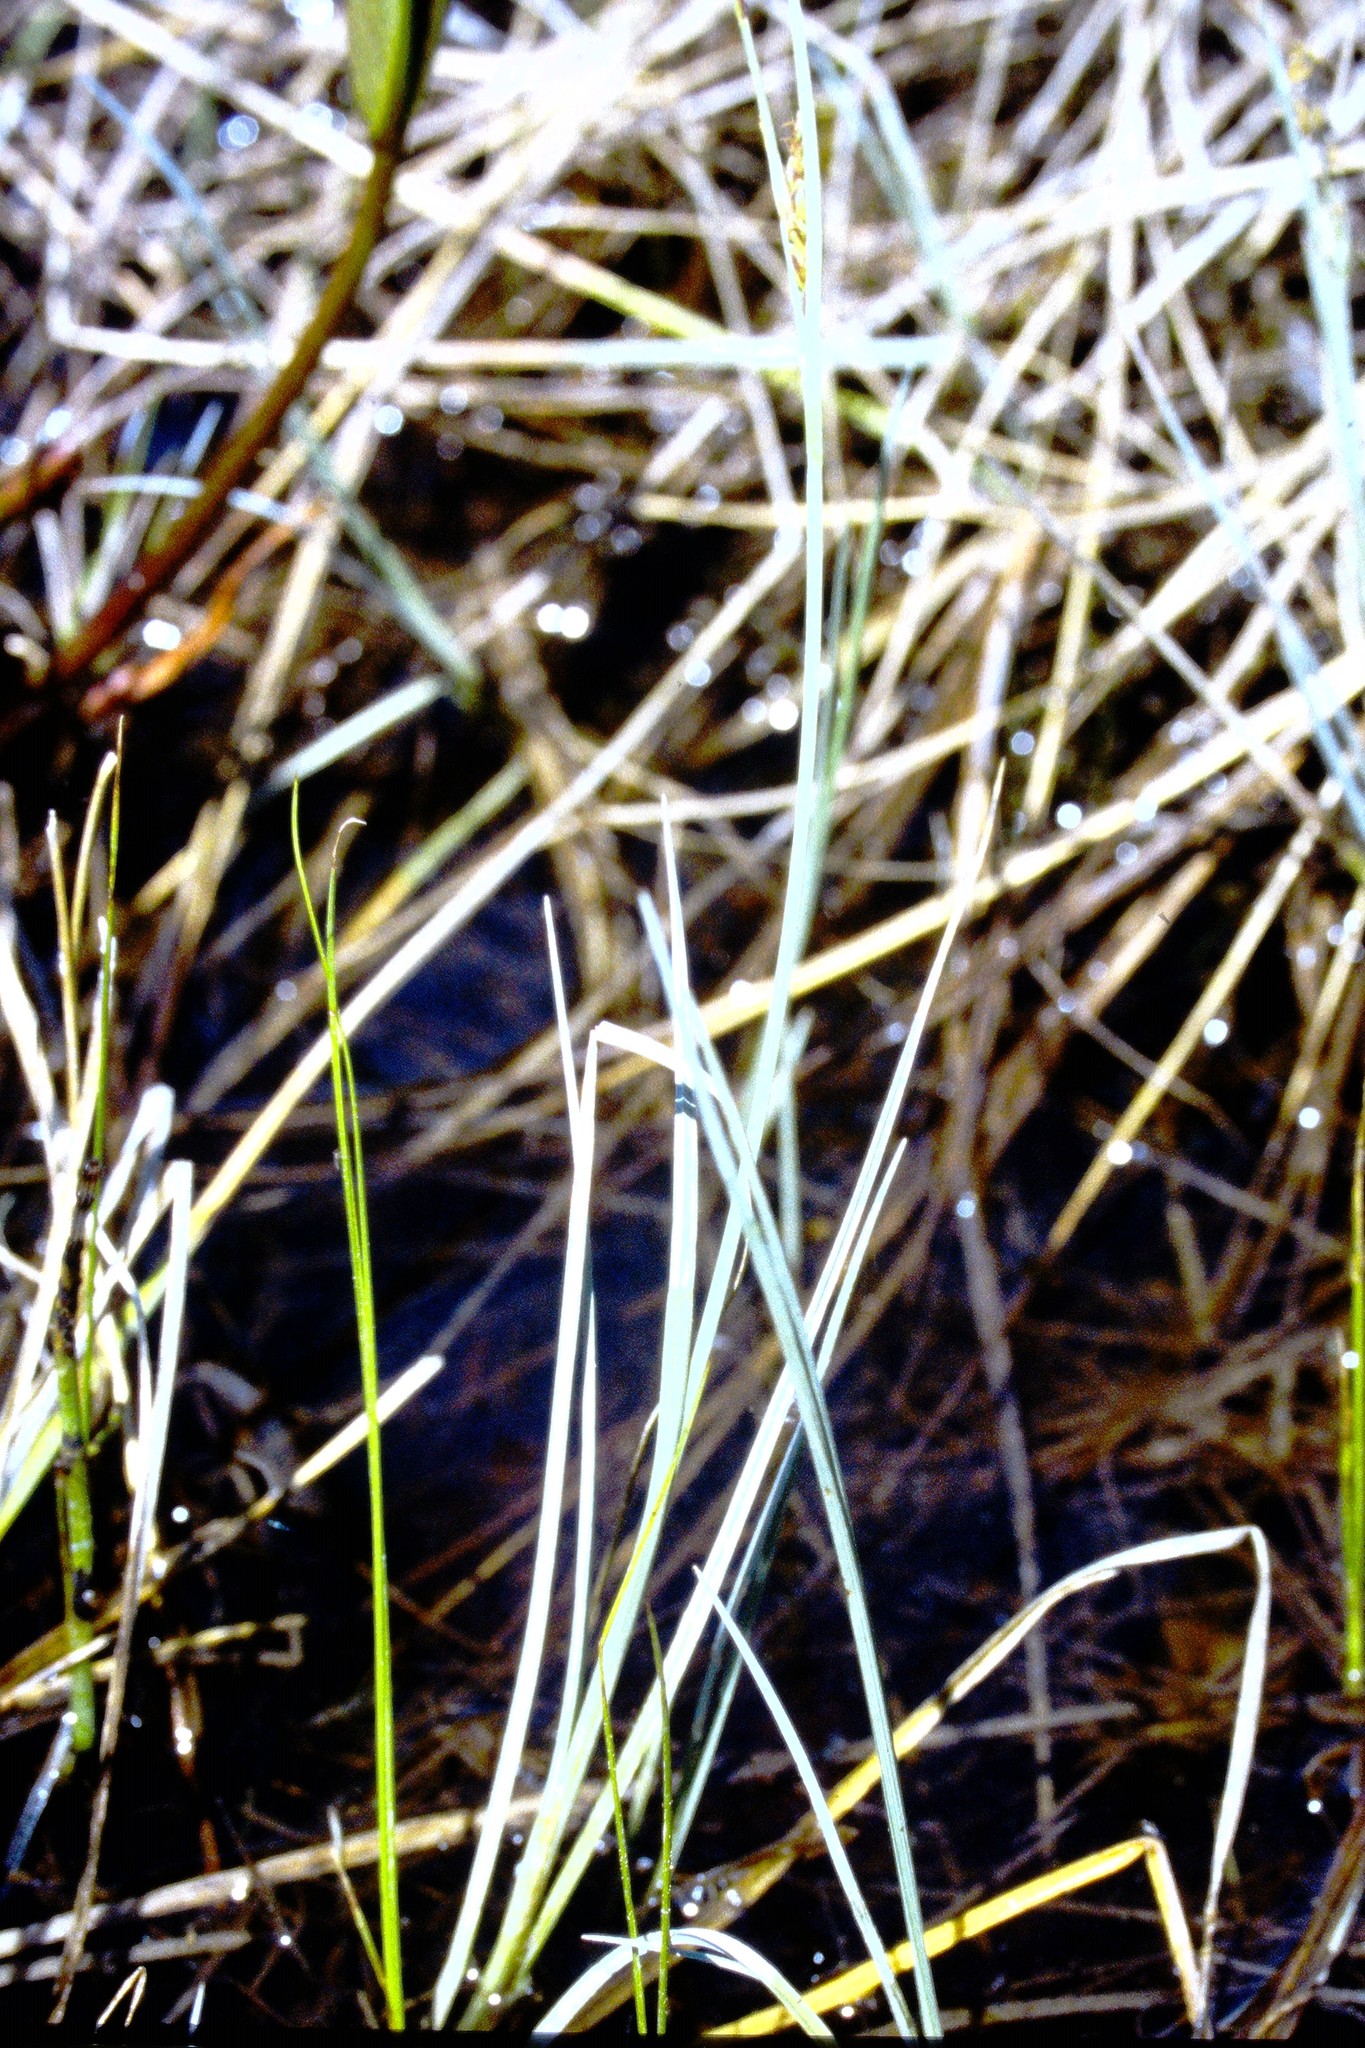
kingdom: Plantae
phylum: Tracheophyta
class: Liliopsida
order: Poales
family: Cyperaceae
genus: Carex
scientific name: Carex livida
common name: Livid sedge
